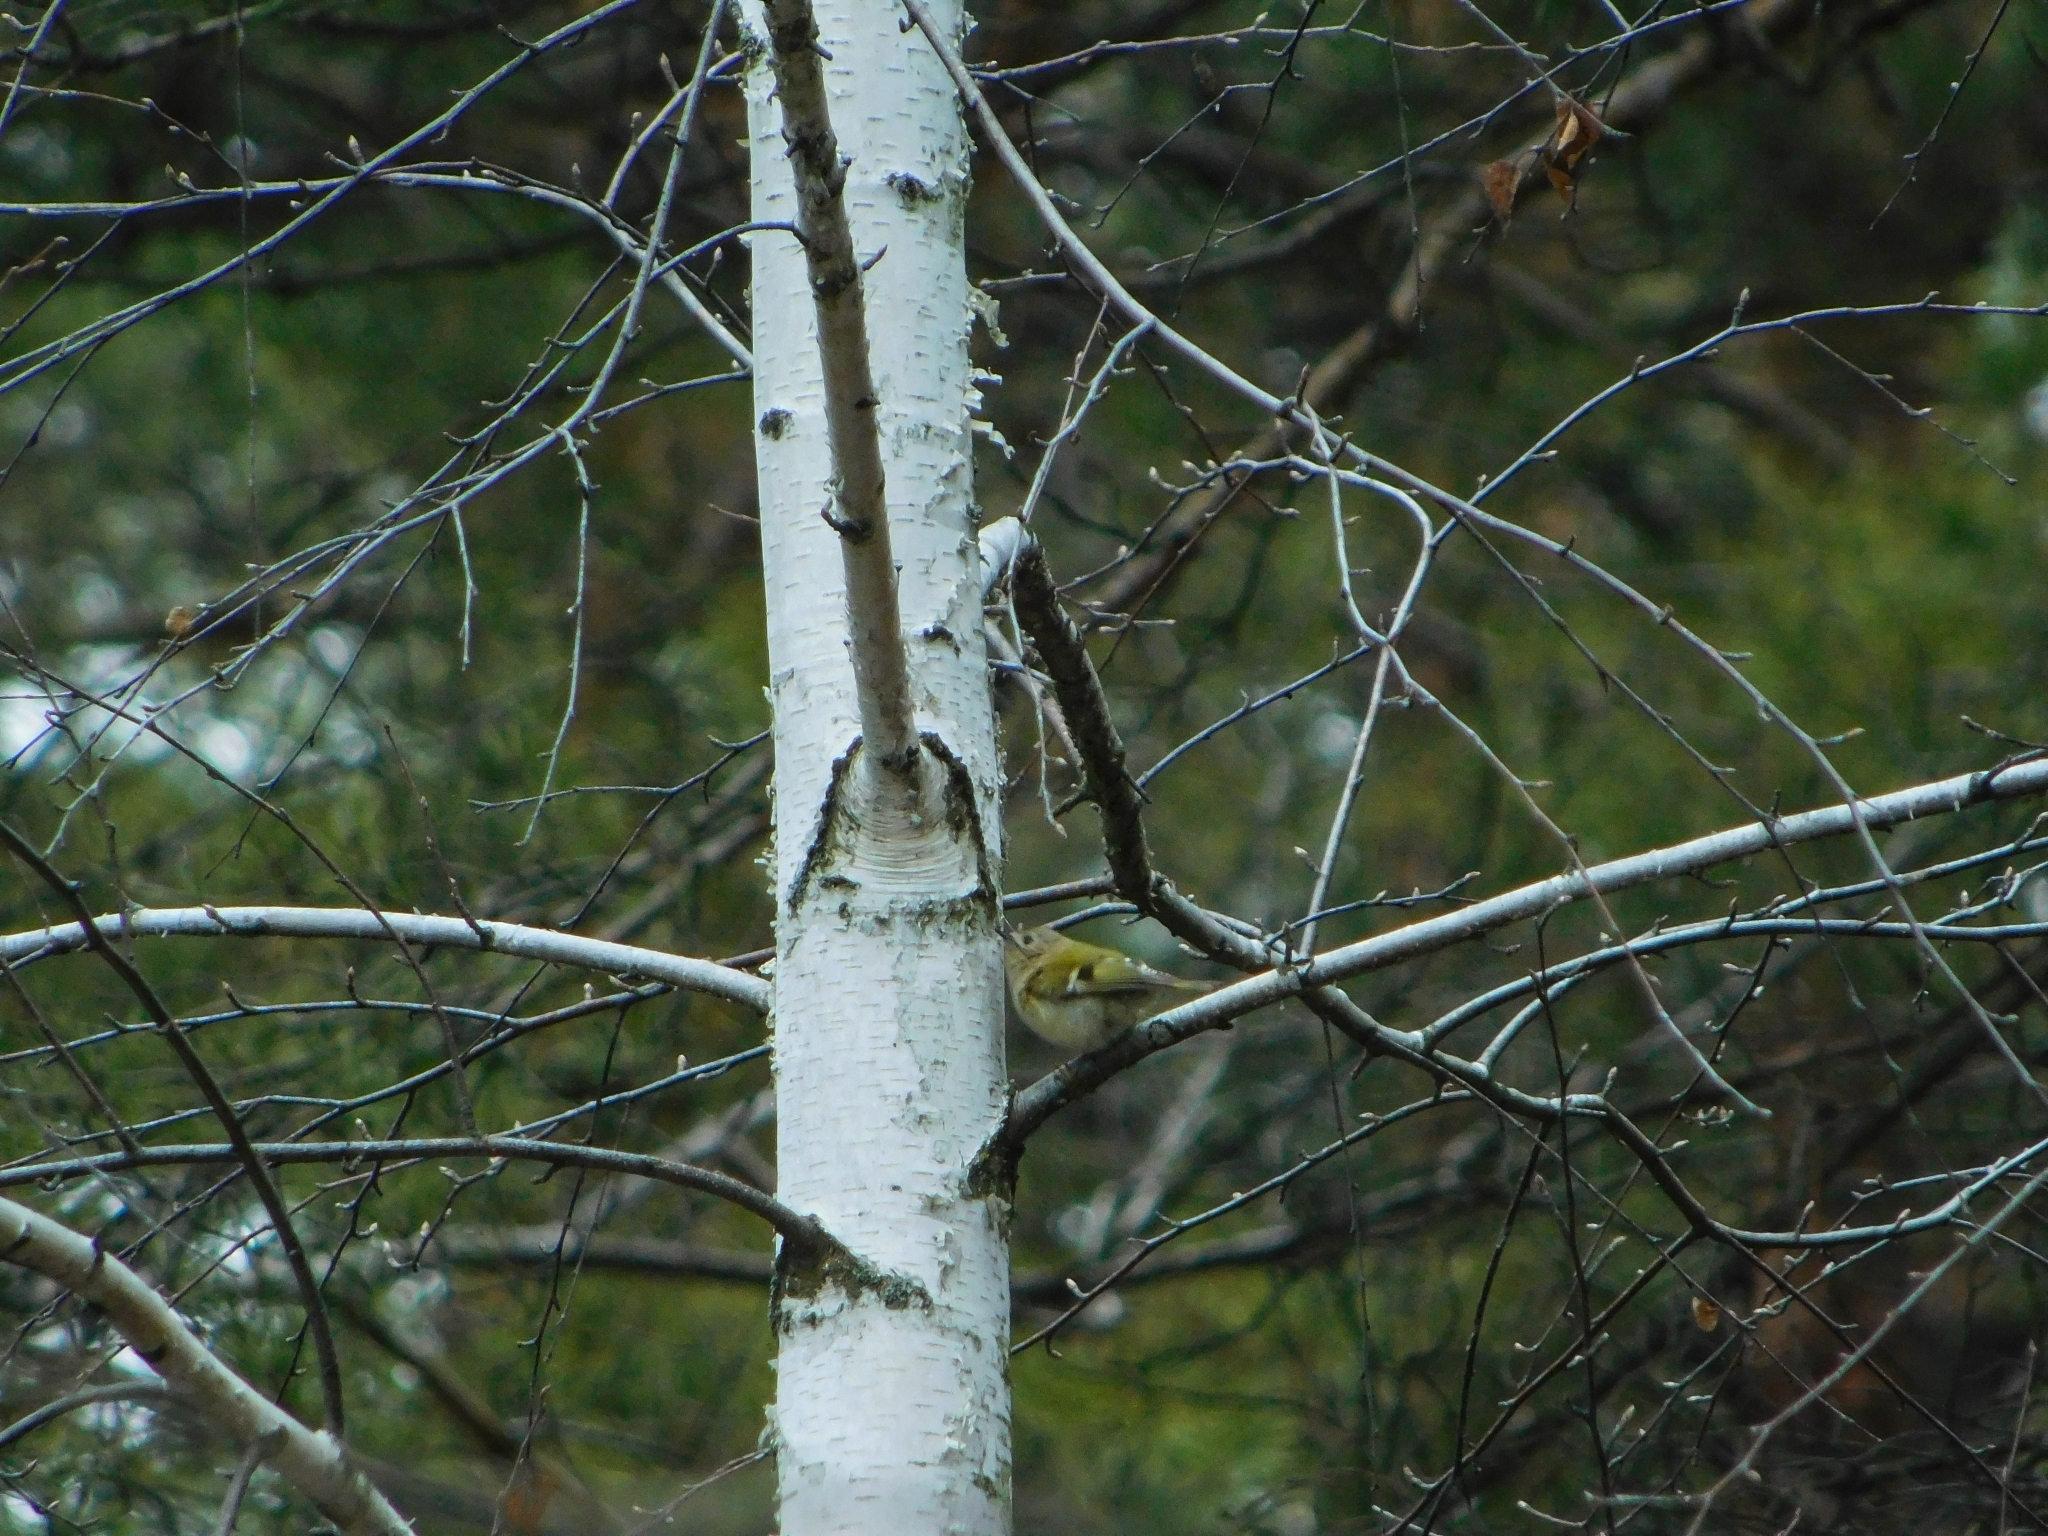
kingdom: Animalia
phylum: Chordata
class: Aves
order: Passeriformes
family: Regulidae
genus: Regulus
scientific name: Regulus regulus
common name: Goldcrest
